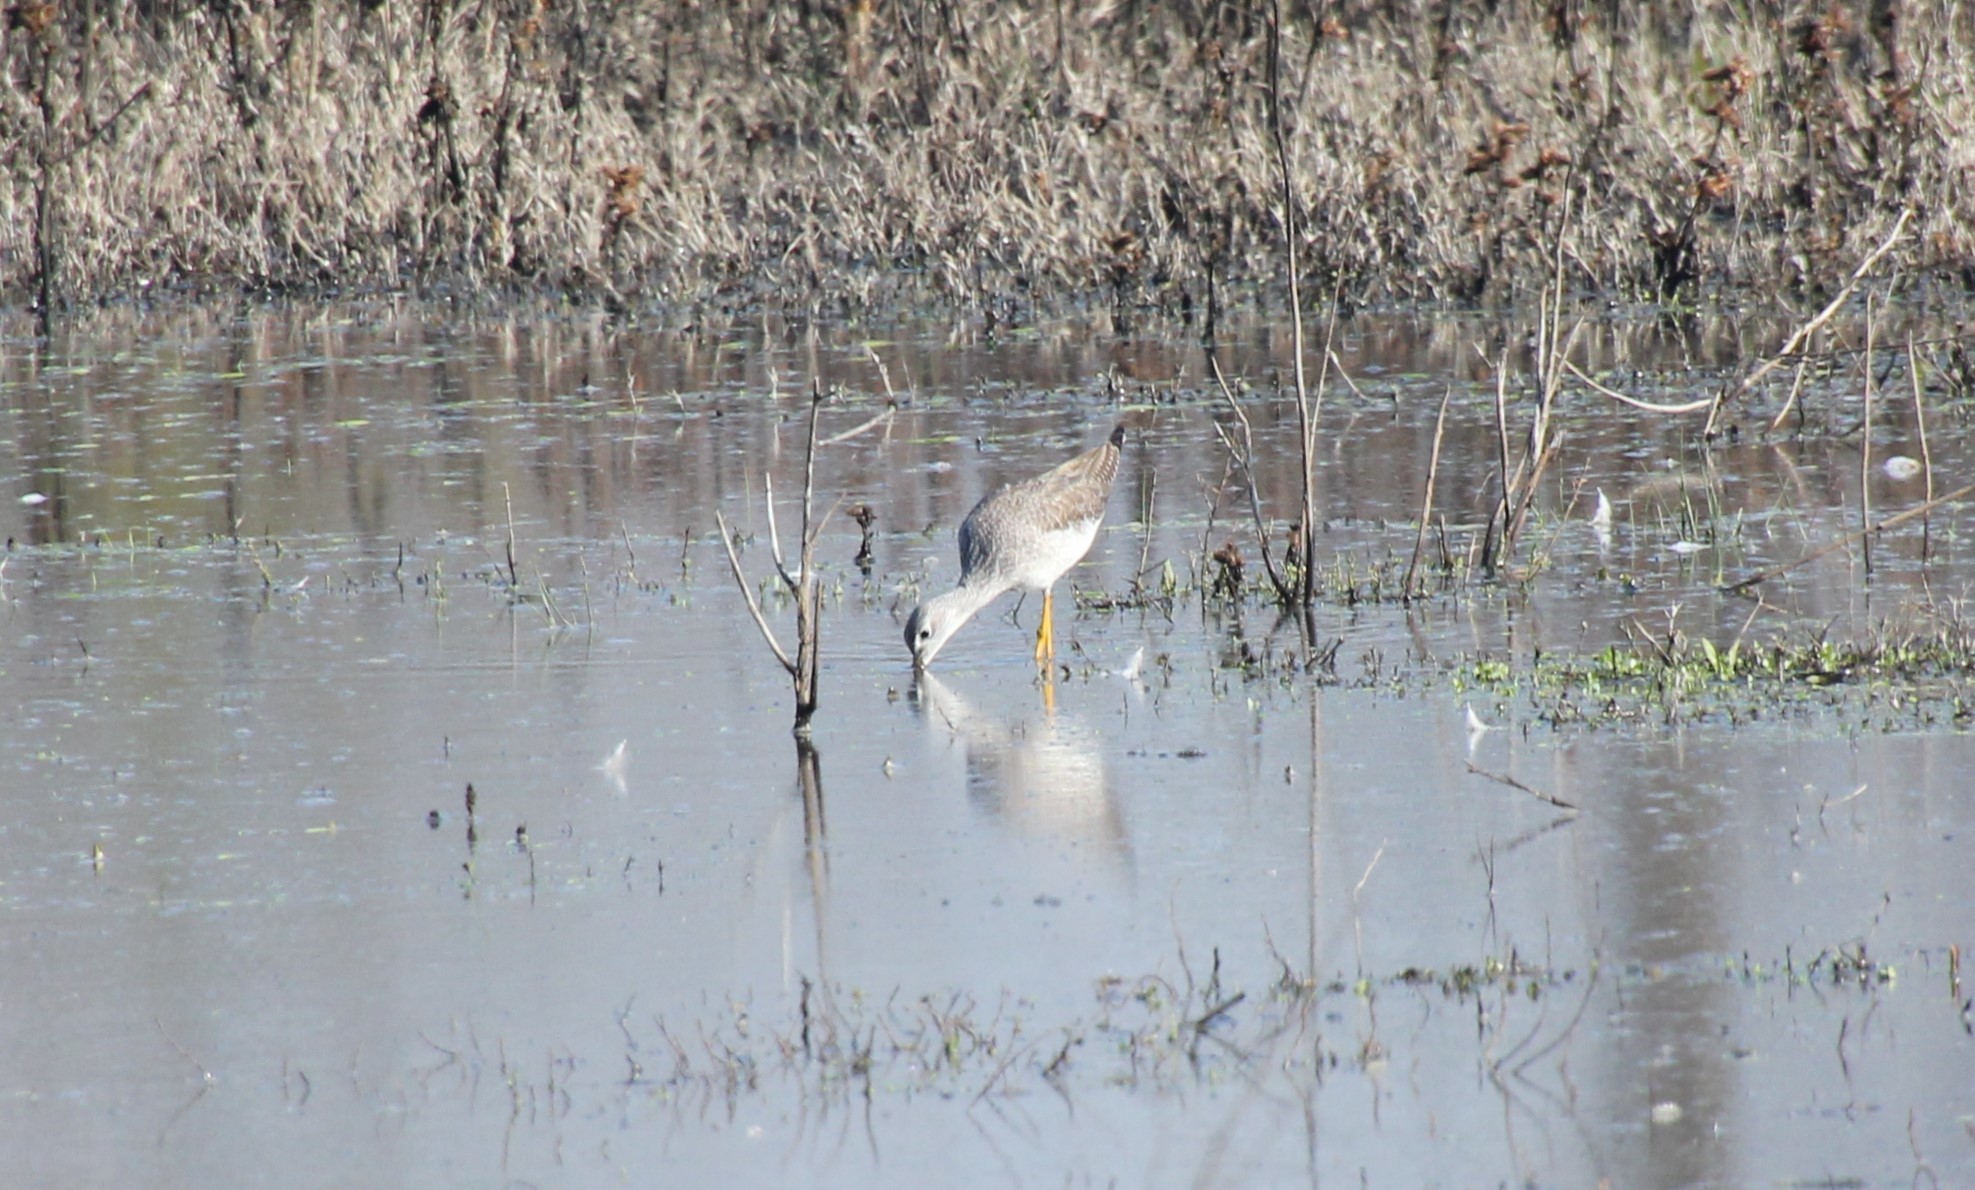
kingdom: Animalia
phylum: Chordata
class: Aves
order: Charadriiformes
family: Scolopacidae
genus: Tringa
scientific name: Tringa melanoleuca
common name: Greater yellowlegs
